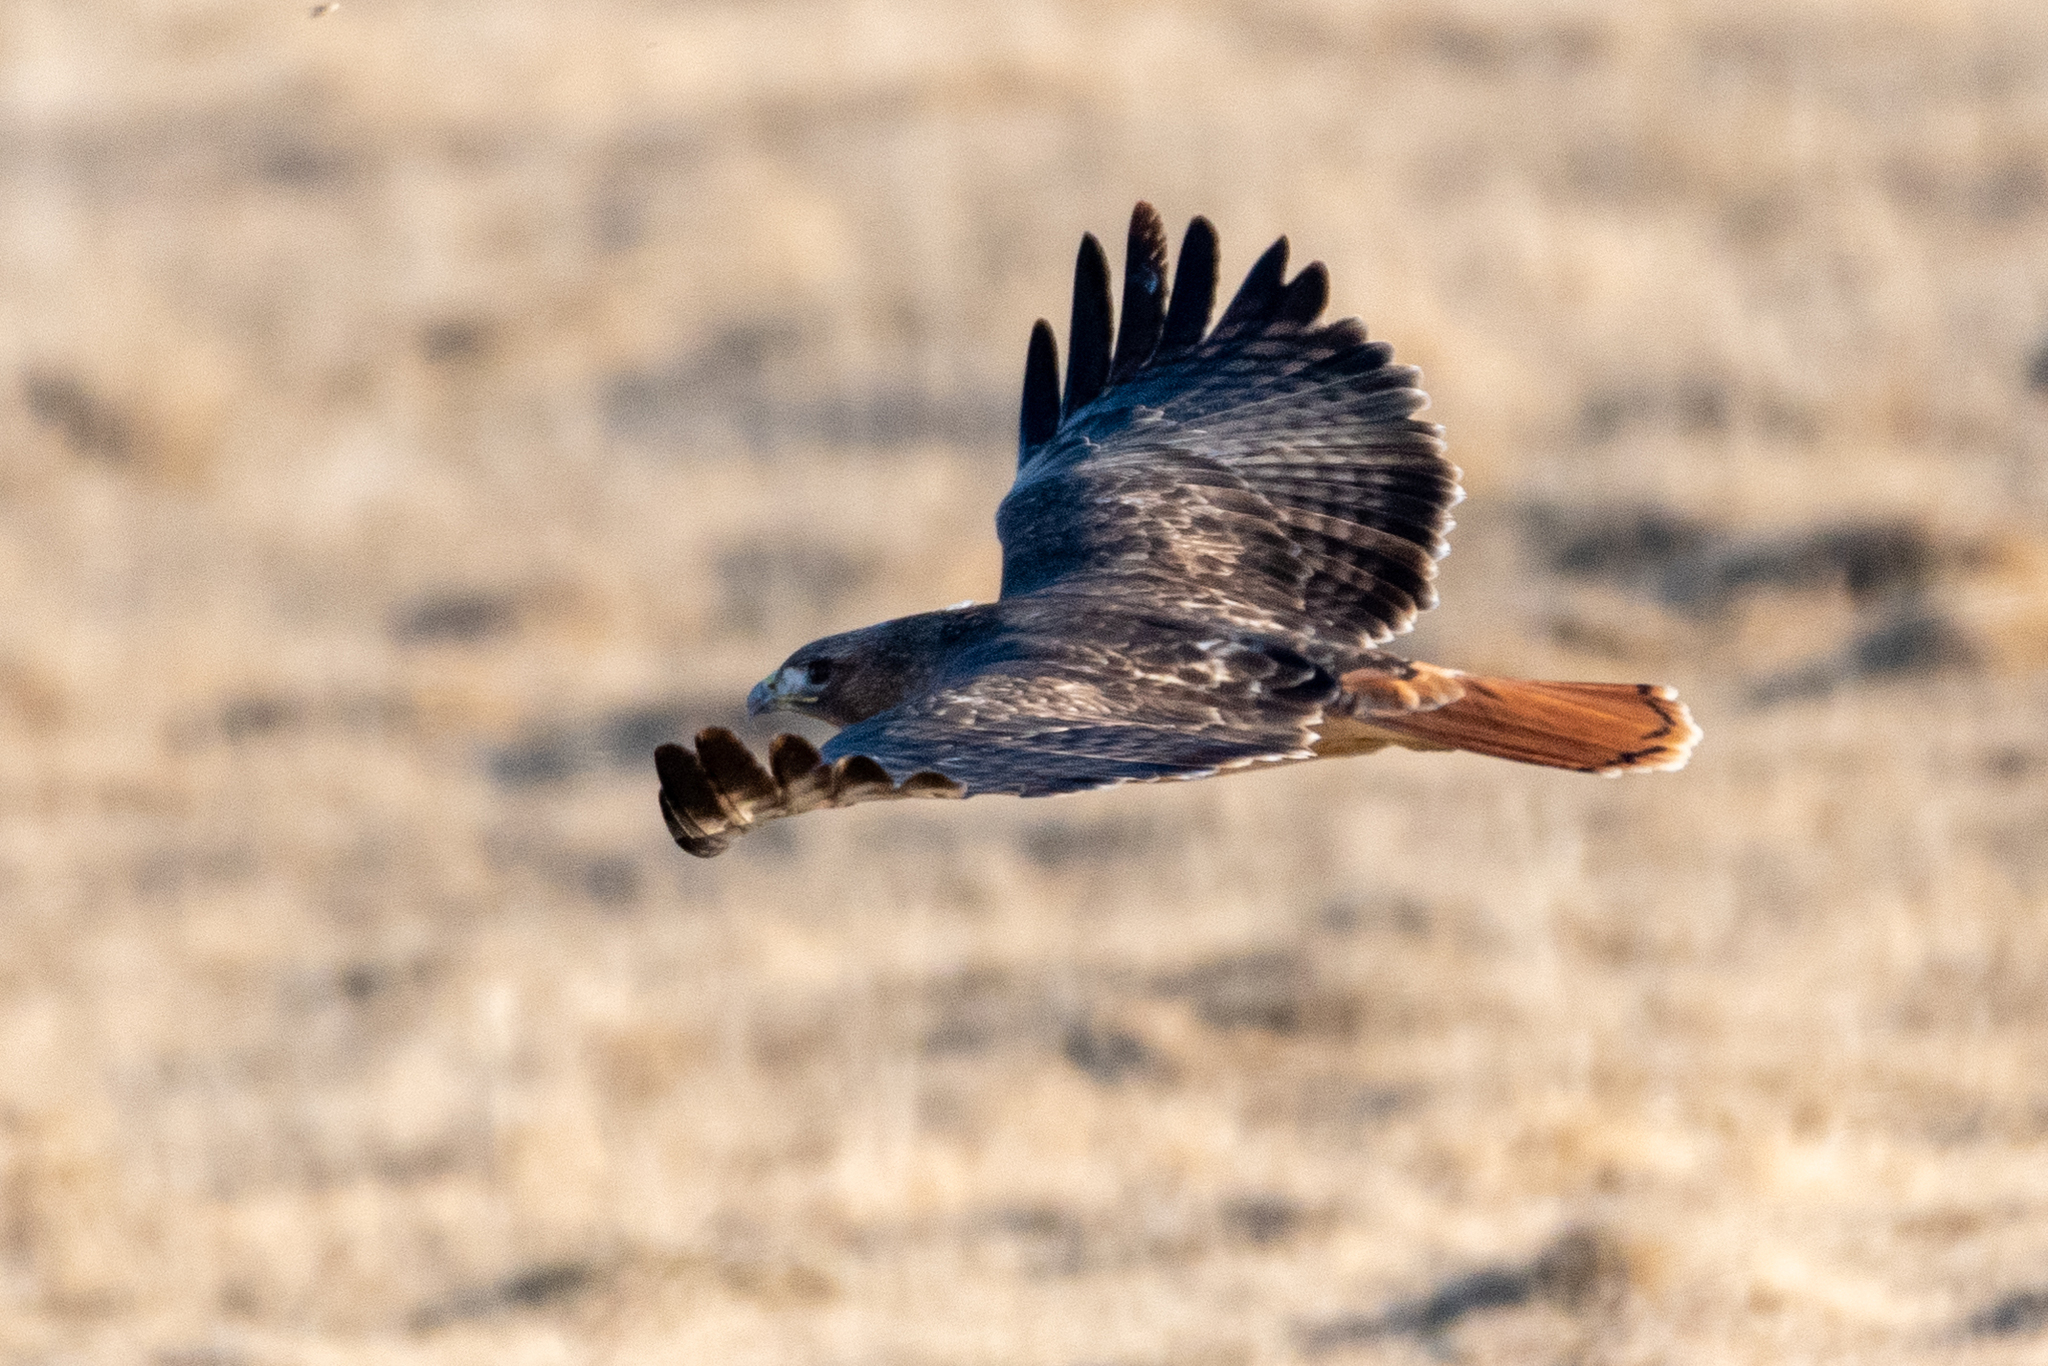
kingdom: Animalia
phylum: Chordata
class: Aves
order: Accipitriformes
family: Accipitridae
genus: Buteo
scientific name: Buteo jamaicensis
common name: Red-tailed hawk
